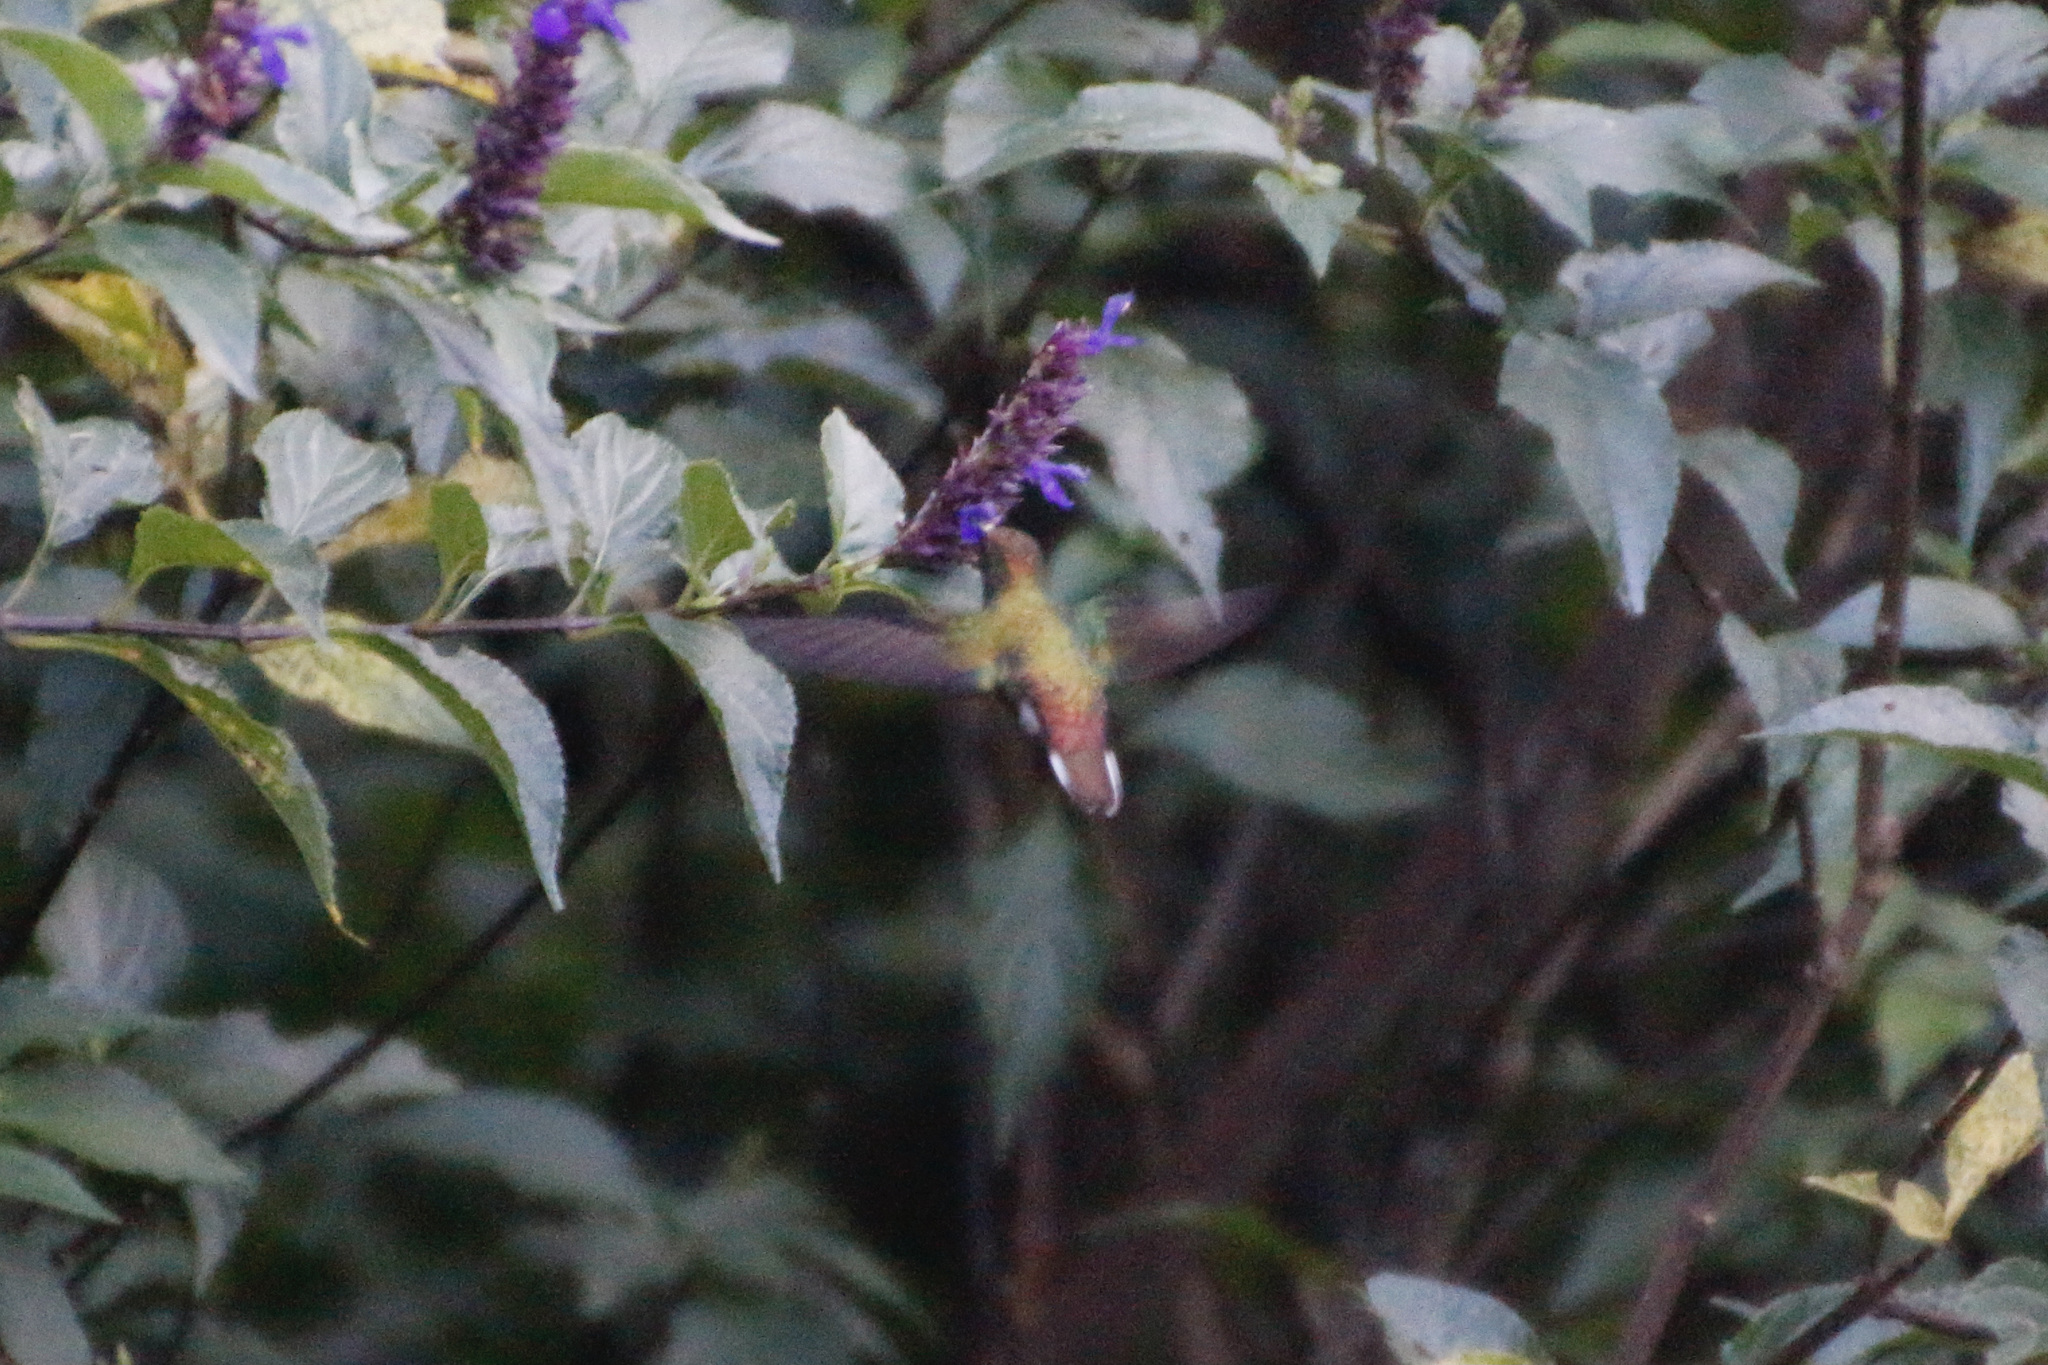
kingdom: Animalia
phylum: Chordata
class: Aves
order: Apodiformes
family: Trochilidae
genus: Microchera
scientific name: Microchera cupreiceps
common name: Coppery-headed emerald
